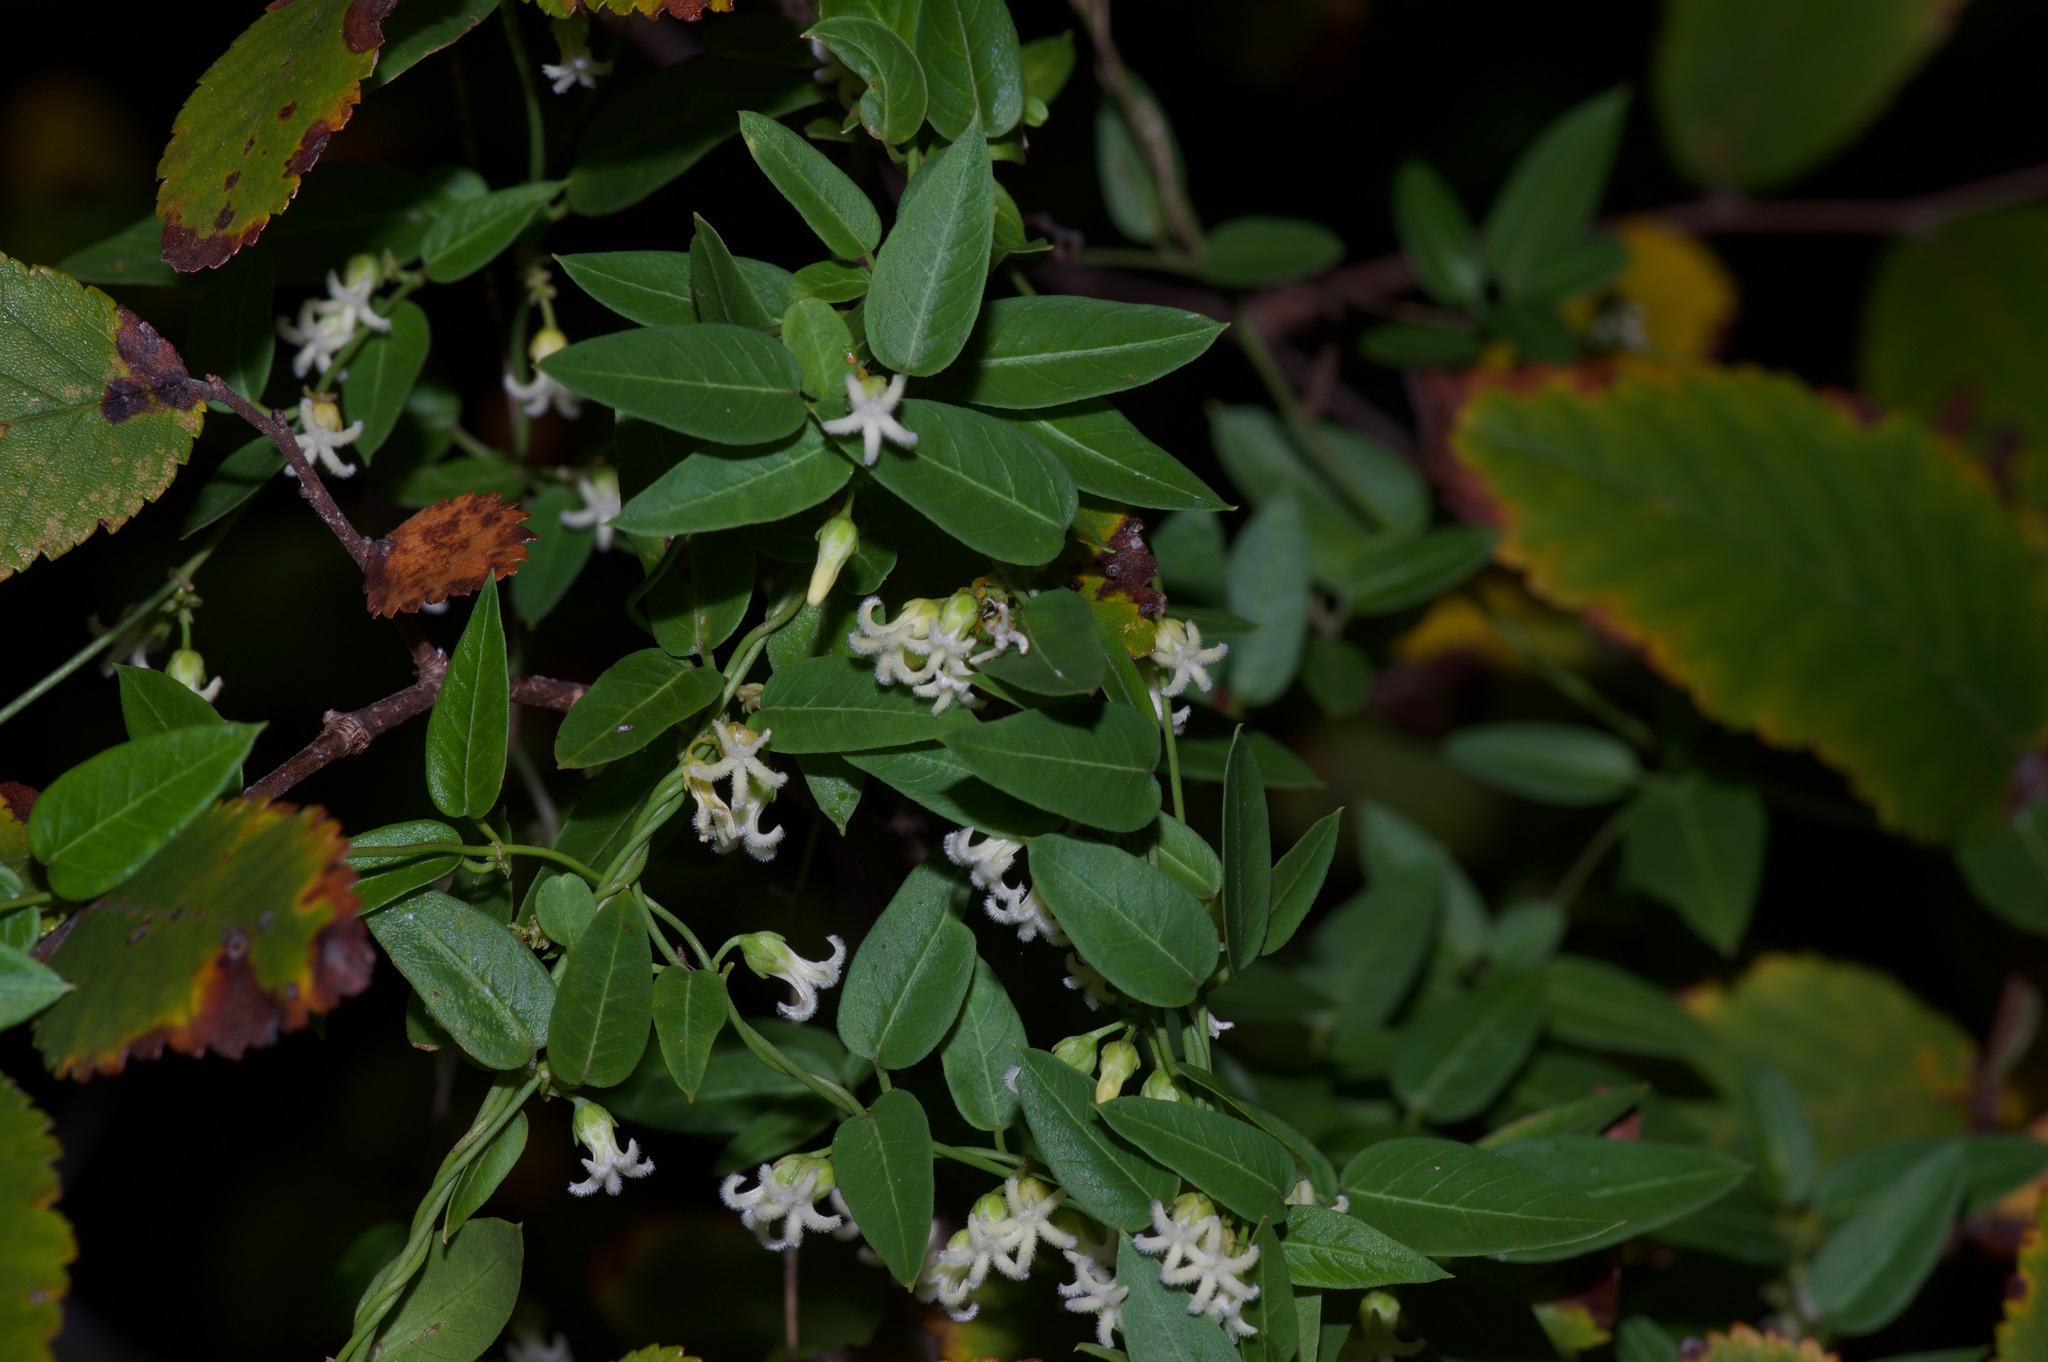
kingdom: Plantae
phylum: Tracheophyta
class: Magnoliopsida
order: Gentianales
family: Apocynaceae
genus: Metastelma
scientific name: Metastelma barbigerum
